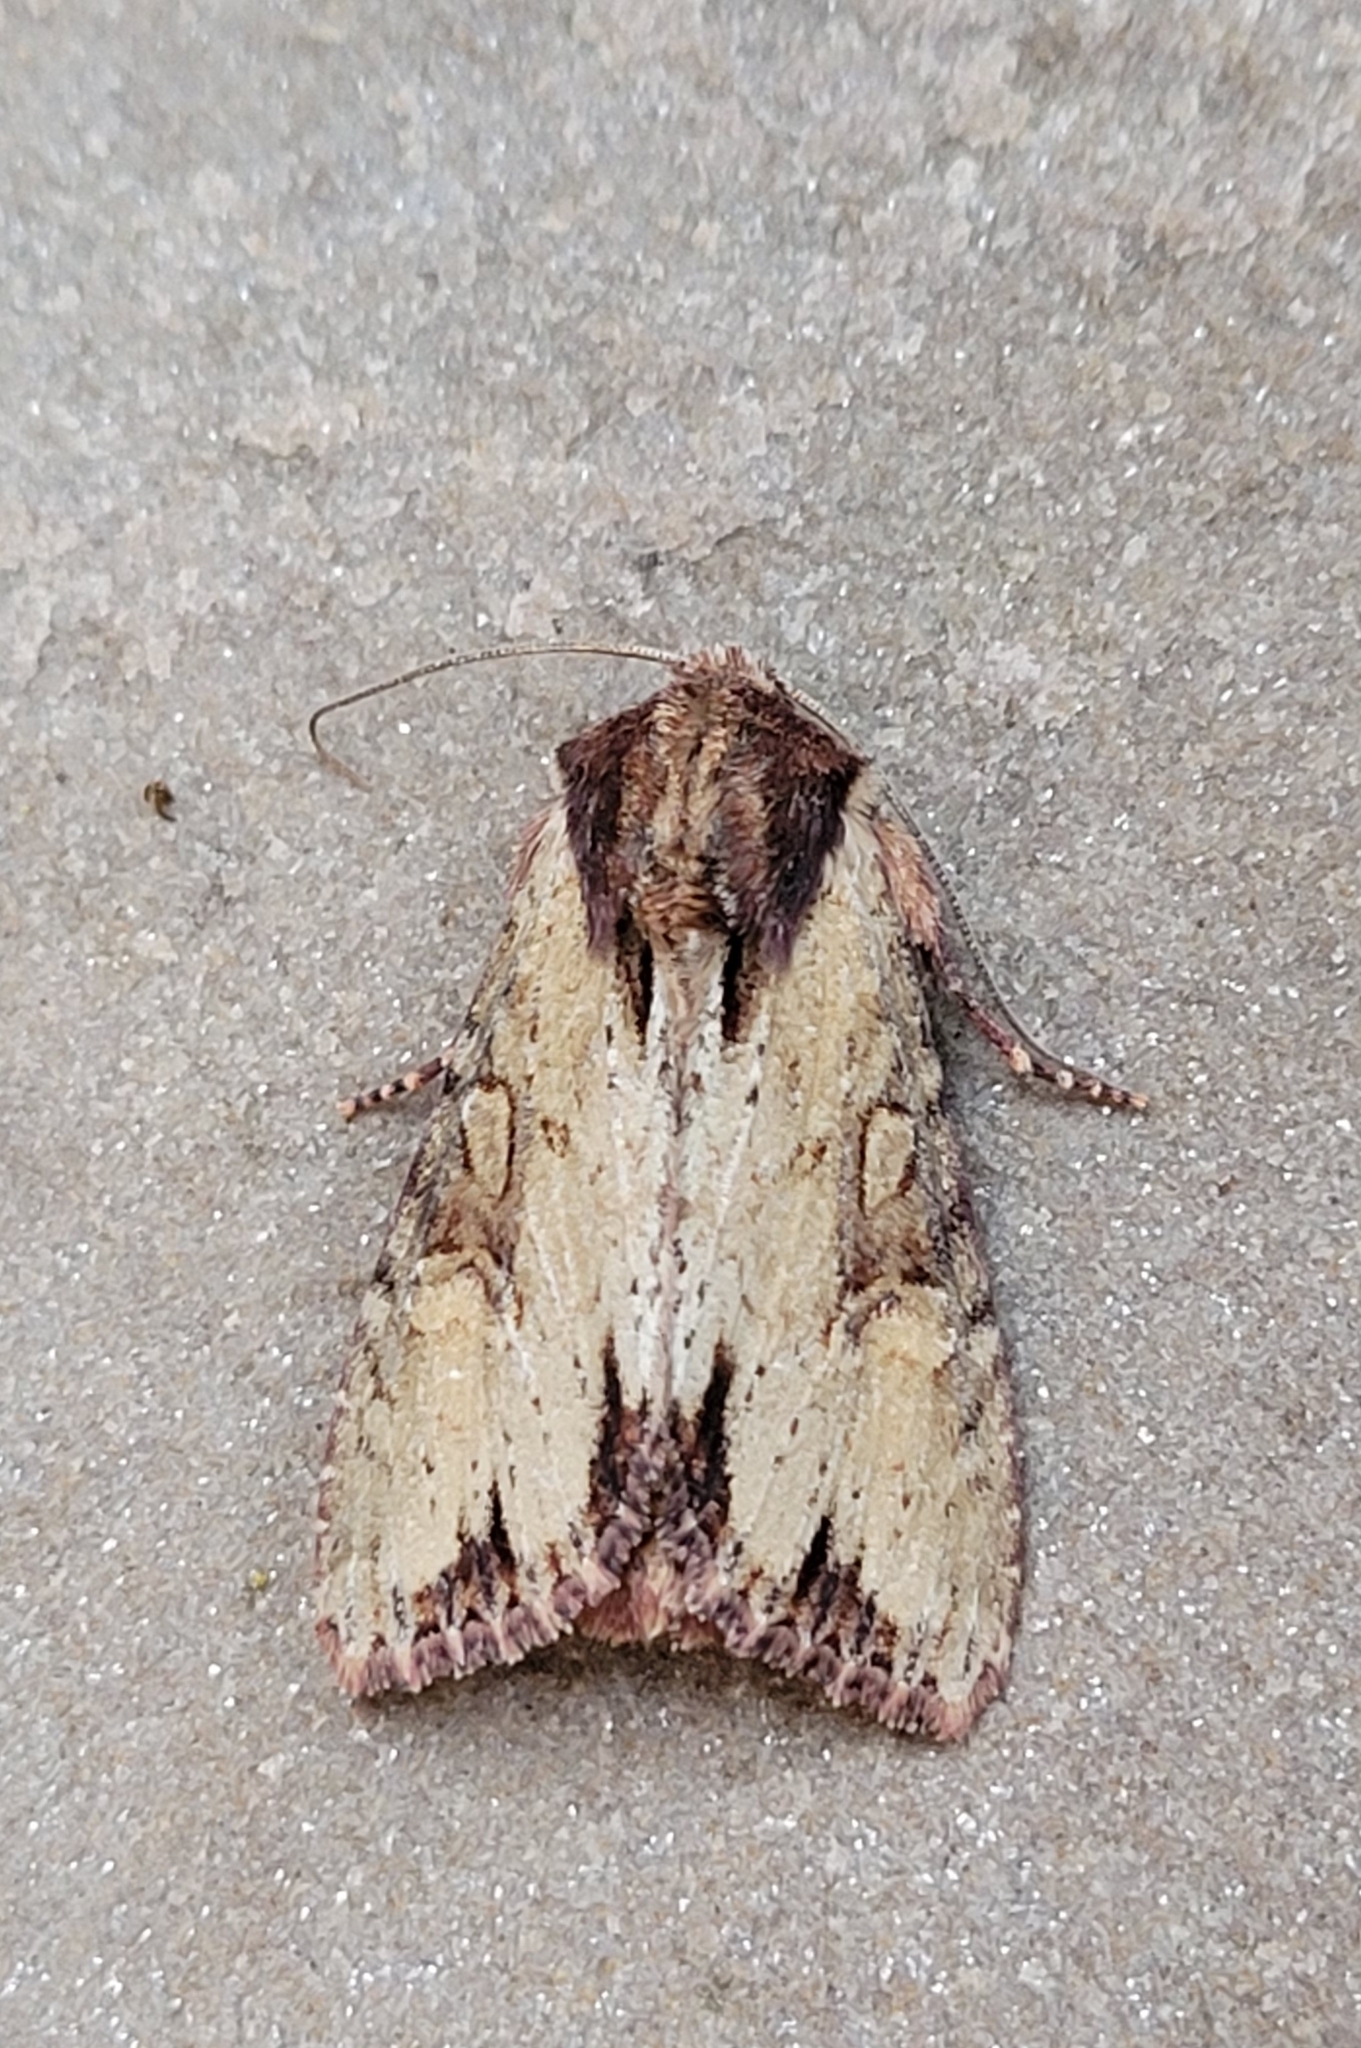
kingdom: Animalia
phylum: Arthropoda
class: Insecta
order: Lepidoptera
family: Noctuidae
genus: Apamea
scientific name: Apamea crenata
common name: Clouded-bordered brindle
